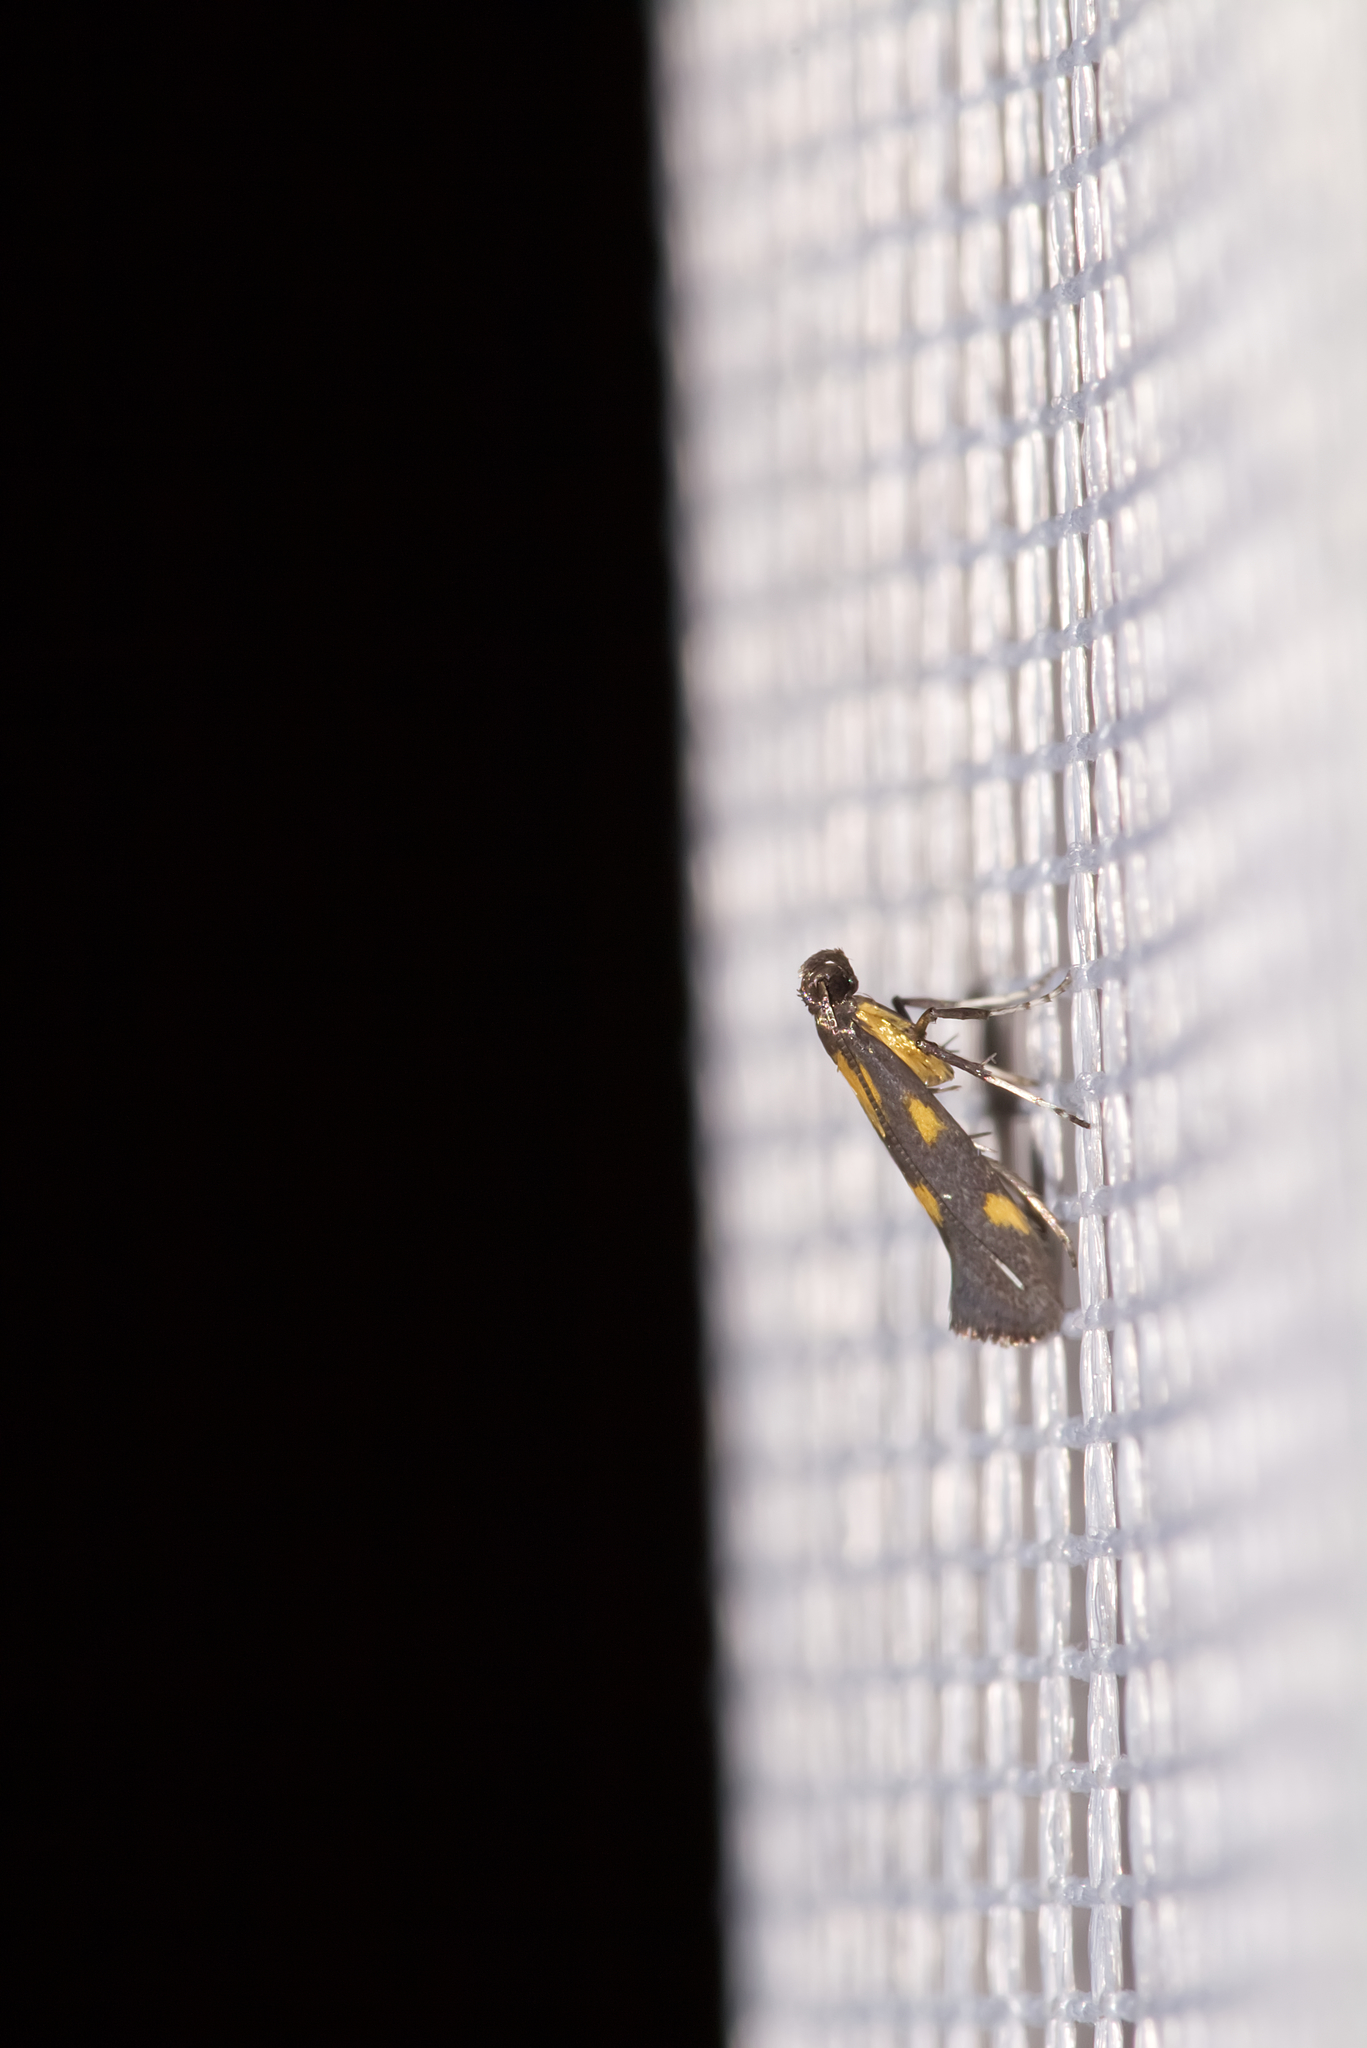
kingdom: Animalia
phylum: Arthropoda
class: Insecta
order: Lepidoptera
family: Gracillariidae
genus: Euspilapteryx
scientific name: Euspilapteryx auroguttella
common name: Gold-dot slender
